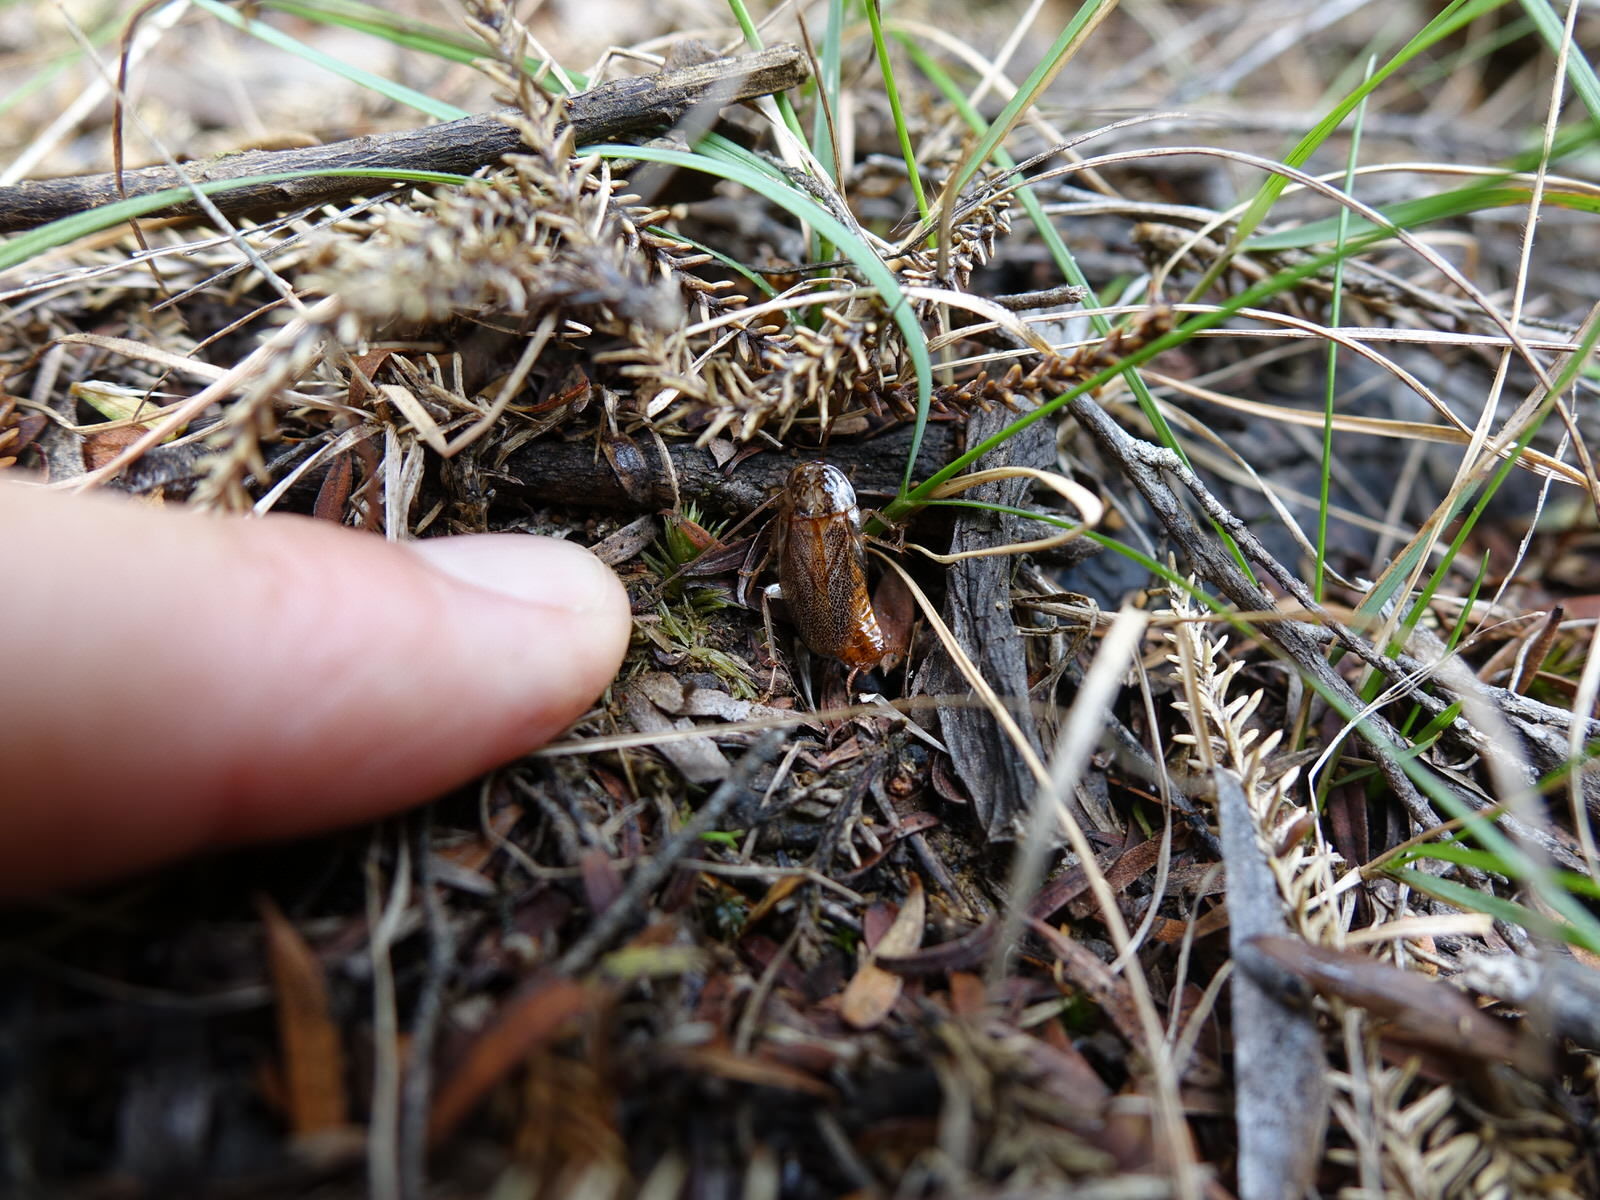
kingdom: Animalia
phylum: Arthropoda
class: Insecta
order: Blattodea
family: Ectobiidae
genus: Parellipsidion
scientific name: Parellipsidion latipenne
